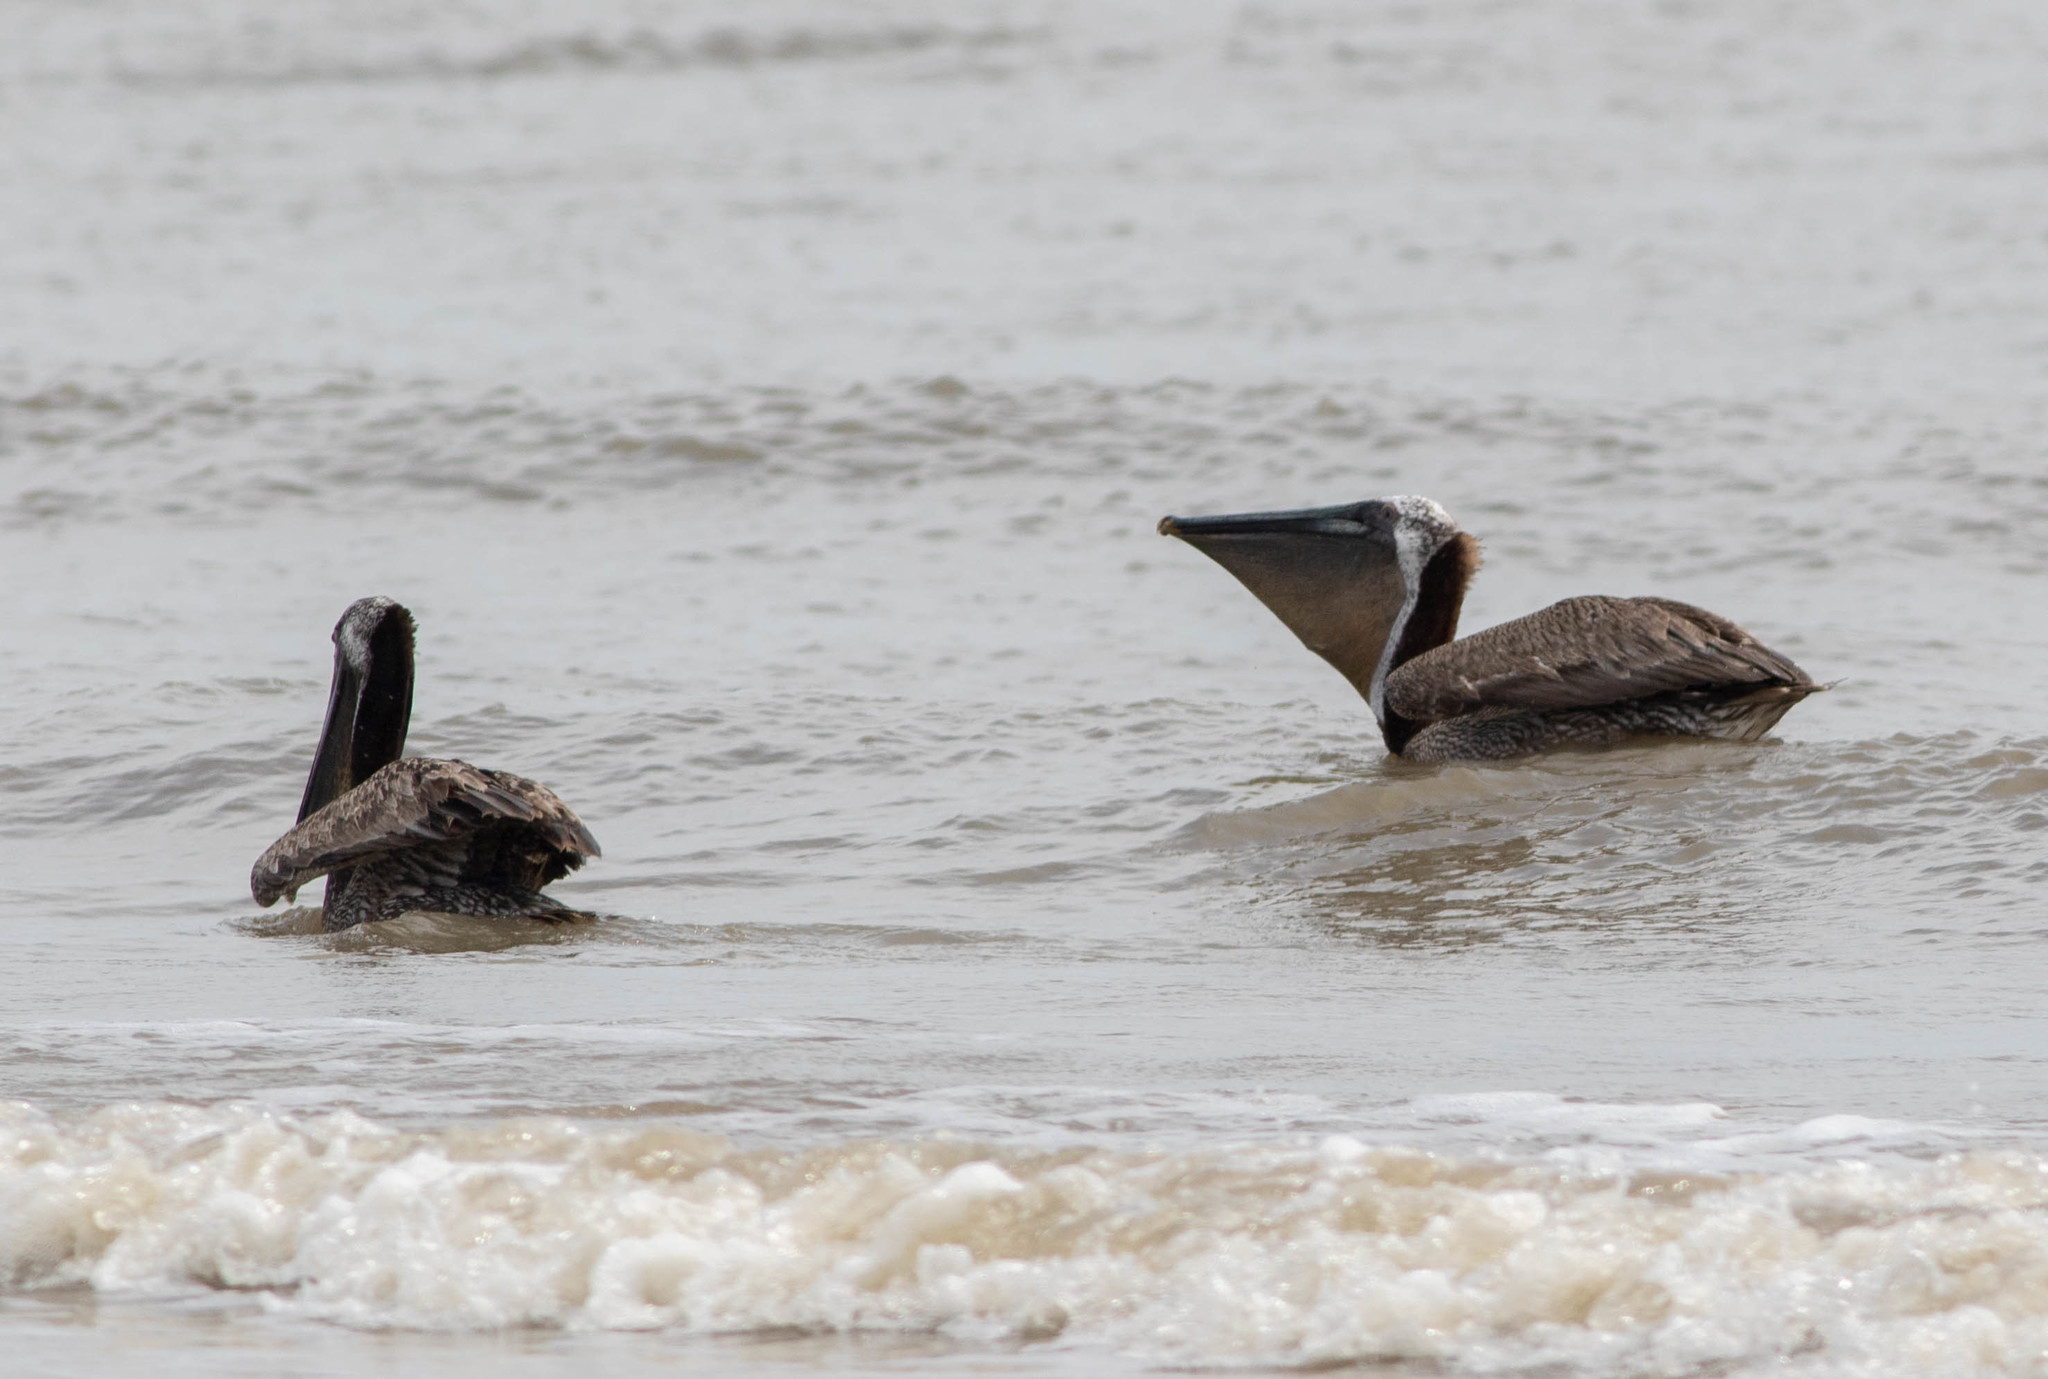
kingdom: Animalia
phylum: Chordata
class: Aves
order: Pelecaniformes
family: Pelecanidae
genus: Pelecanus
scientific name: Pelecanus occidentalis
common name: Brown pelican
